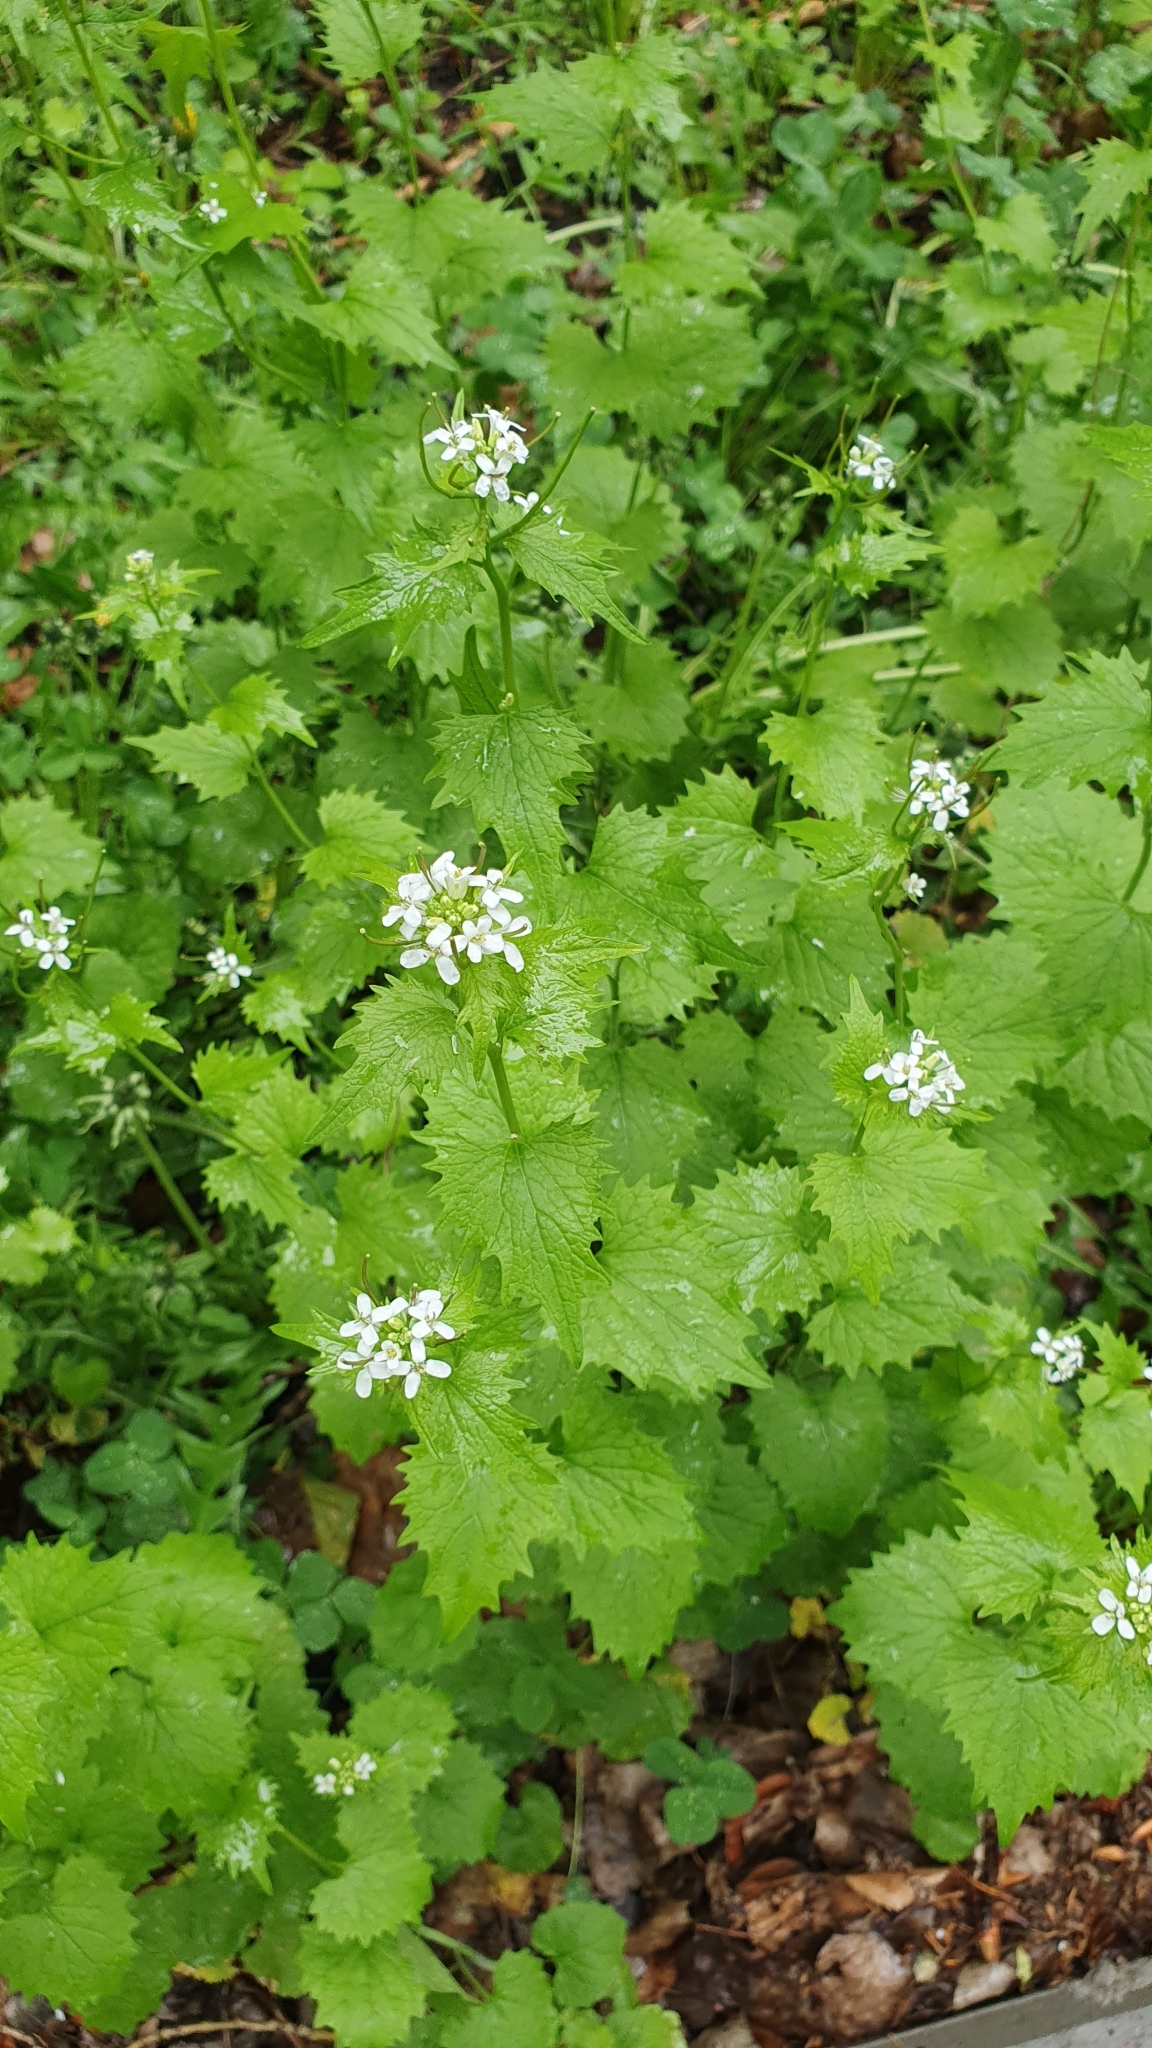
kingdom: Plantae
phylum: Tracheophyta
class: Magnoliopsida
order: Brassicales
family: Brassicaceae
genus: Alliaria
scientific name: Alliaria petiolata
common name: Garlic mustard
